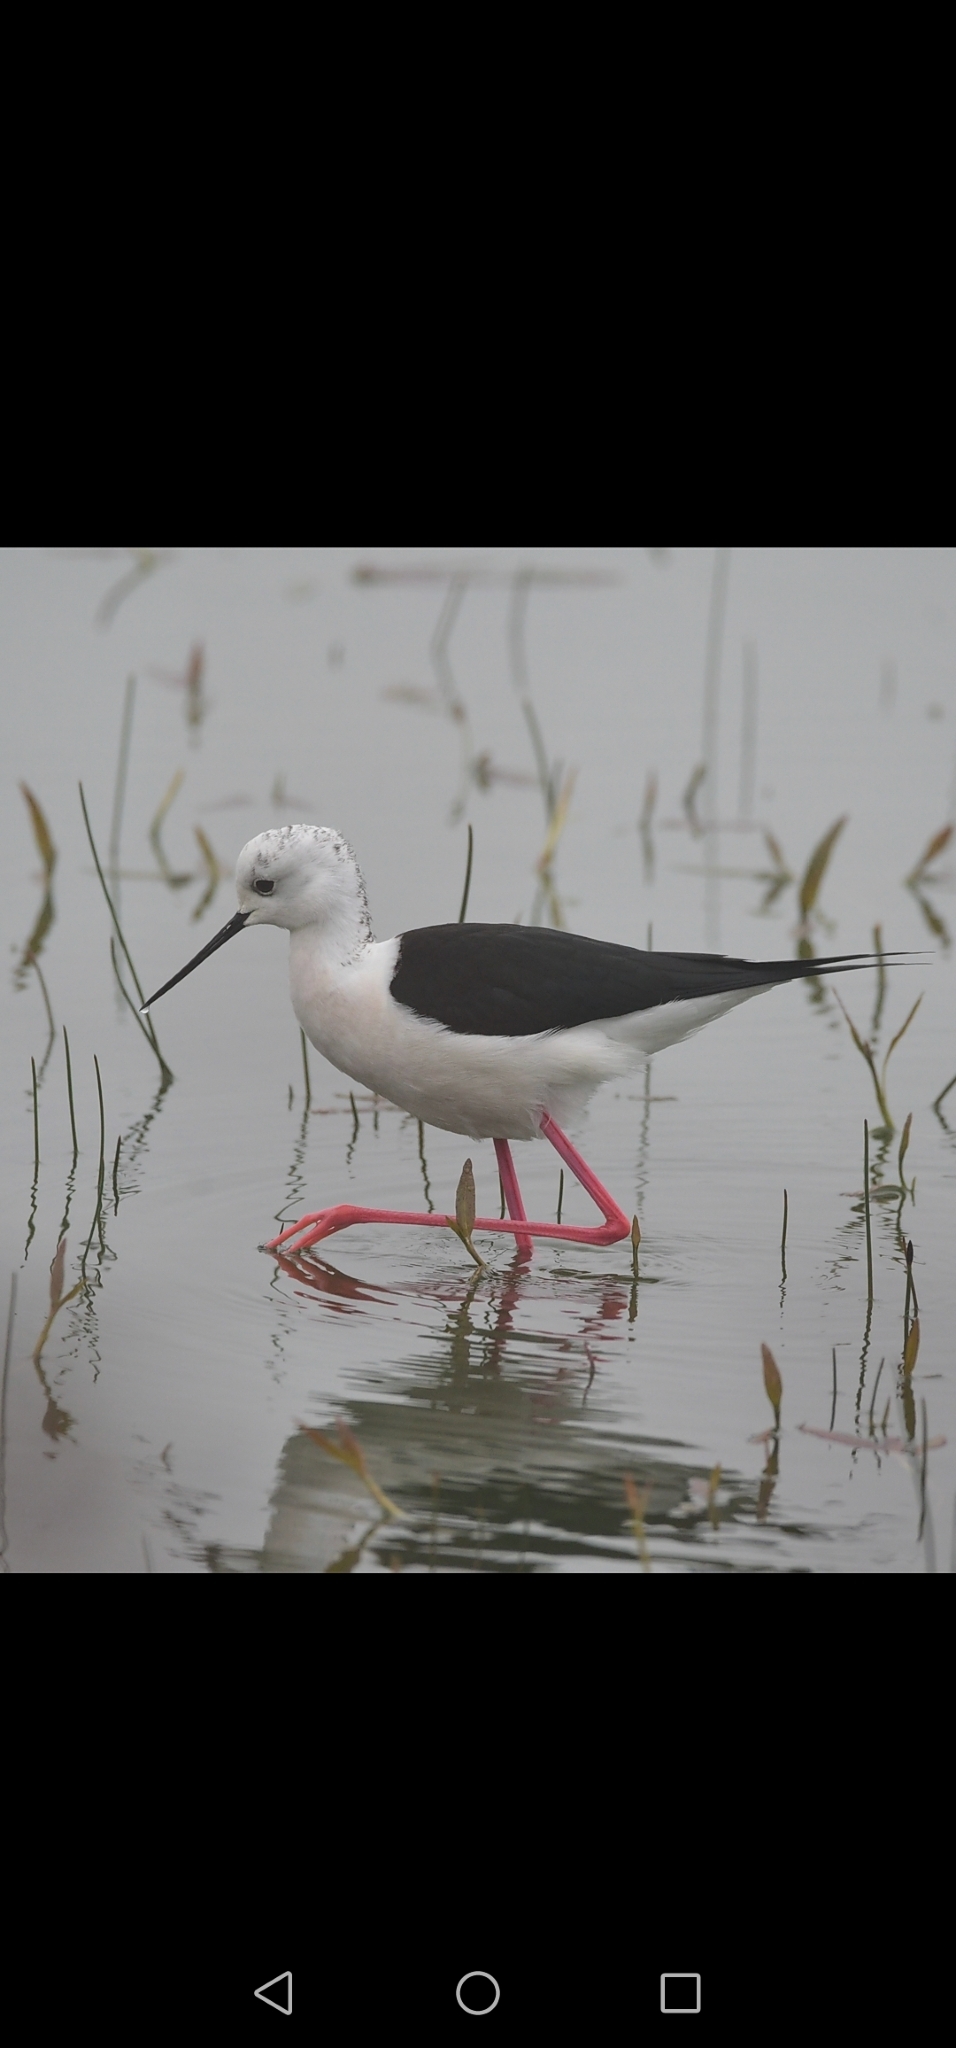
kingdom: Animalia
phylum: Chordata
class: Aves
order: Charadriiformes
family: Recurvirostridae
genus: Himantopus
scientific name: Himantopus himantopus
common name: Black-winged stilt
